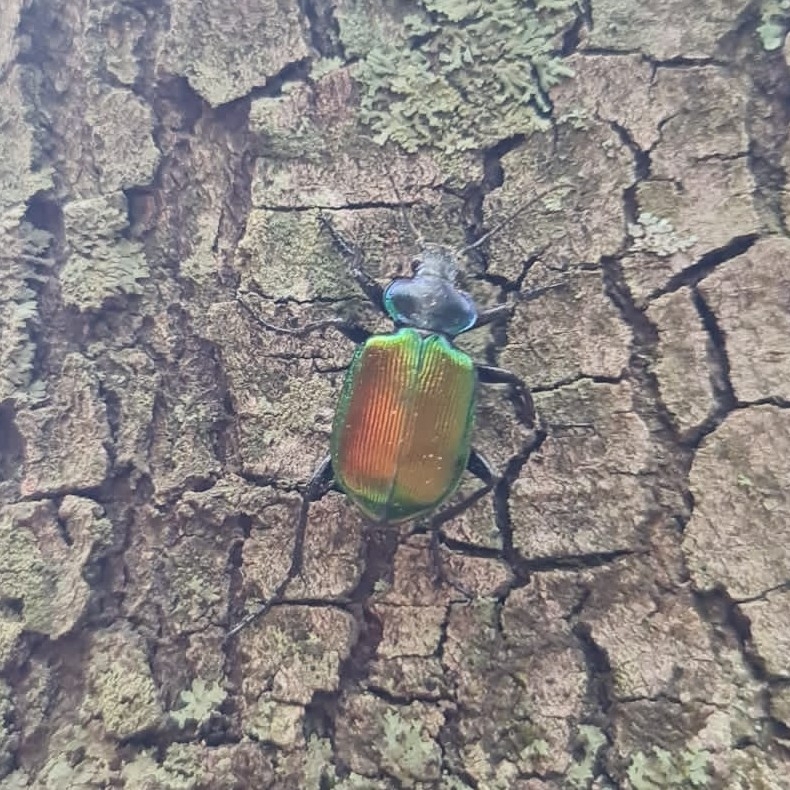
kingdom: Animalia
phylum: Arthropoda
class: Insecta
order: Coleoptera
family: Carabidae
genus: Calosoma
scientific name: Calosoma sycophanta
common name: Forest caterpillar hunter
